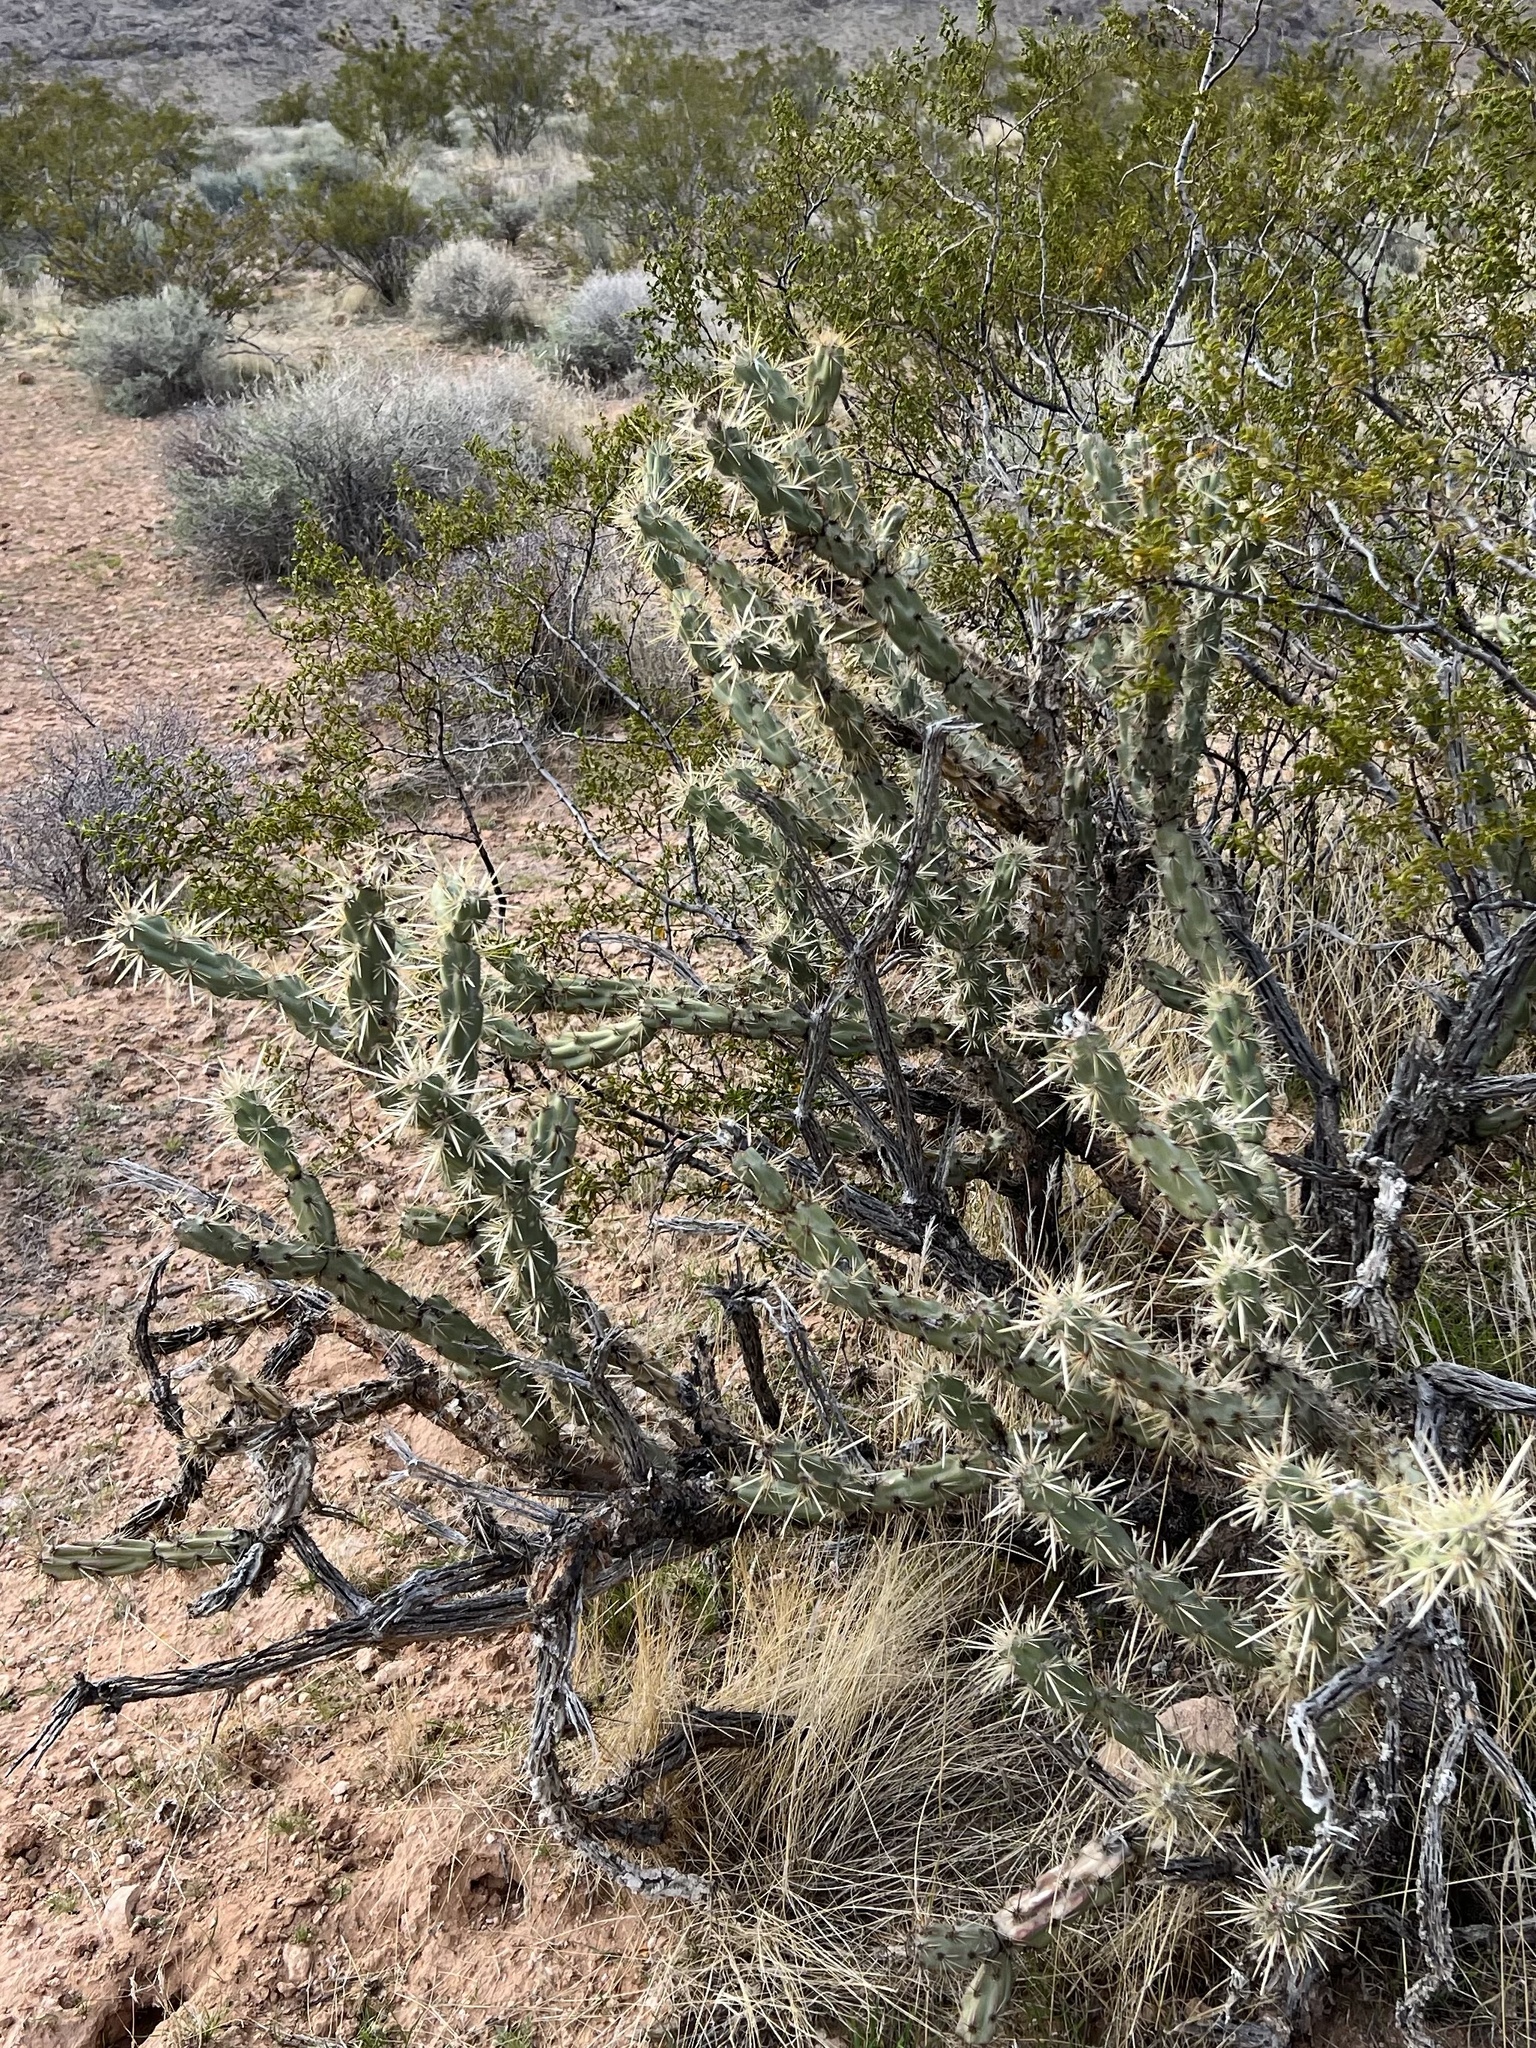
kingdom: Plantae
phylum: Tracheophyta
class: Magnoliopsida
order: Caryophyllales
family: Cactaceae
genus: Cylindropuntia
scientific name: Cylindropuntia acanthocarpa
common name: Buckhorn cholla
